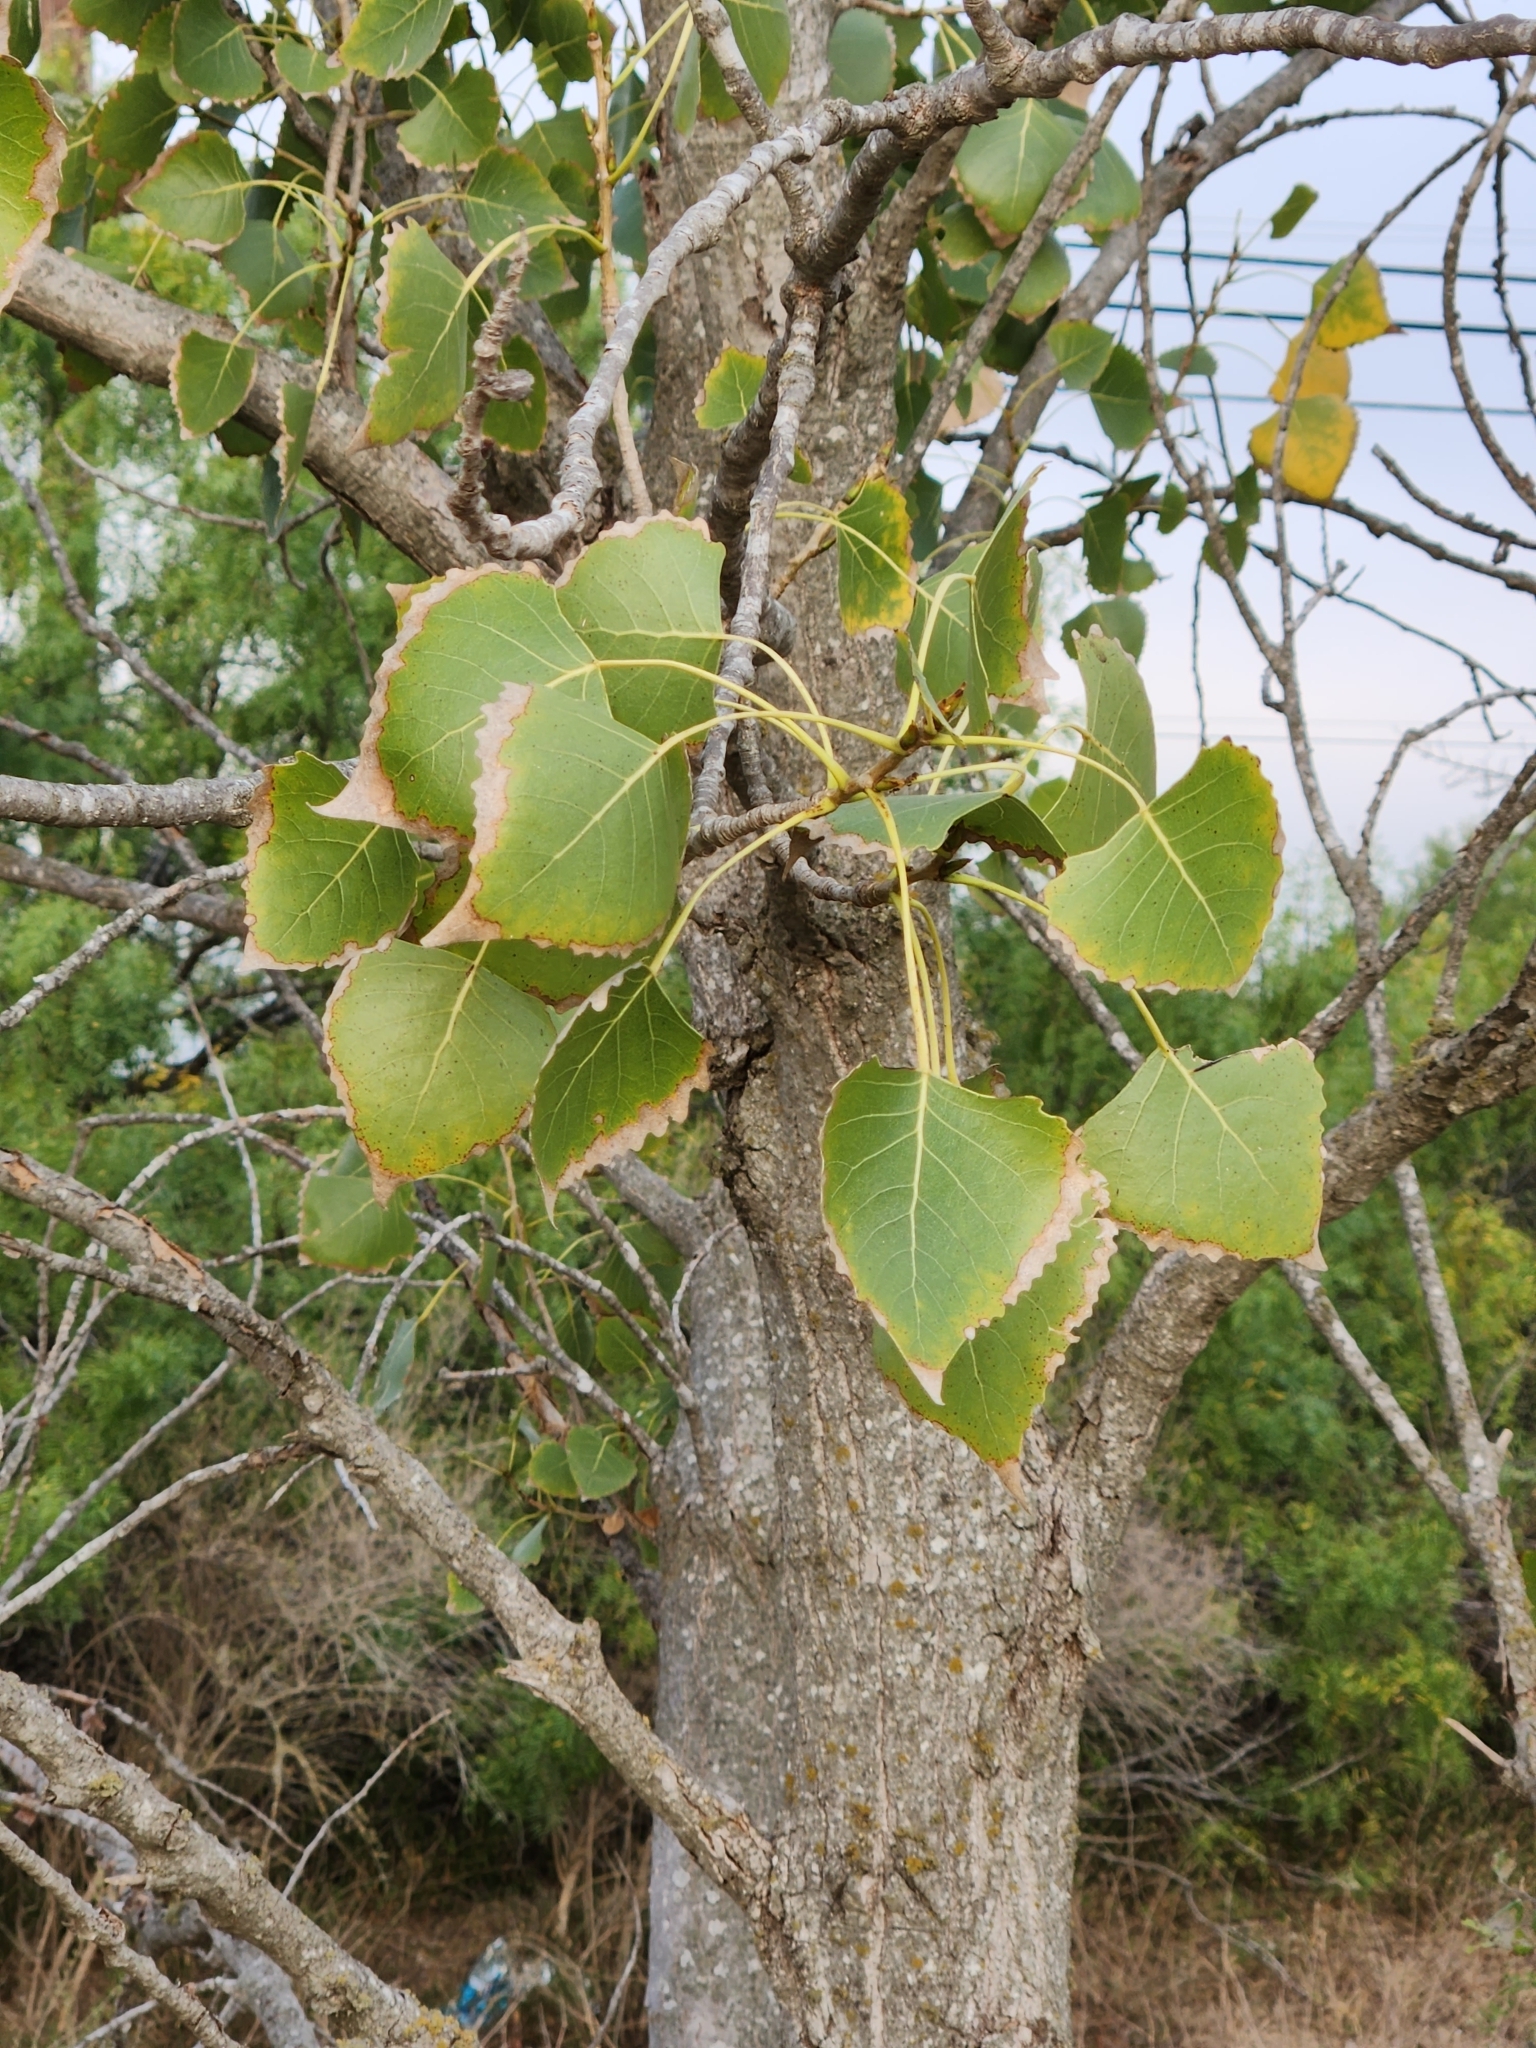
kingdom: Plantae
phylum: Tracheophyta
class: Magnoliopsida
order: Malpighiales
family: Salicaceae
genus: Populus
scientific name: Populus deltoides
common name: Eastern cottonwood
